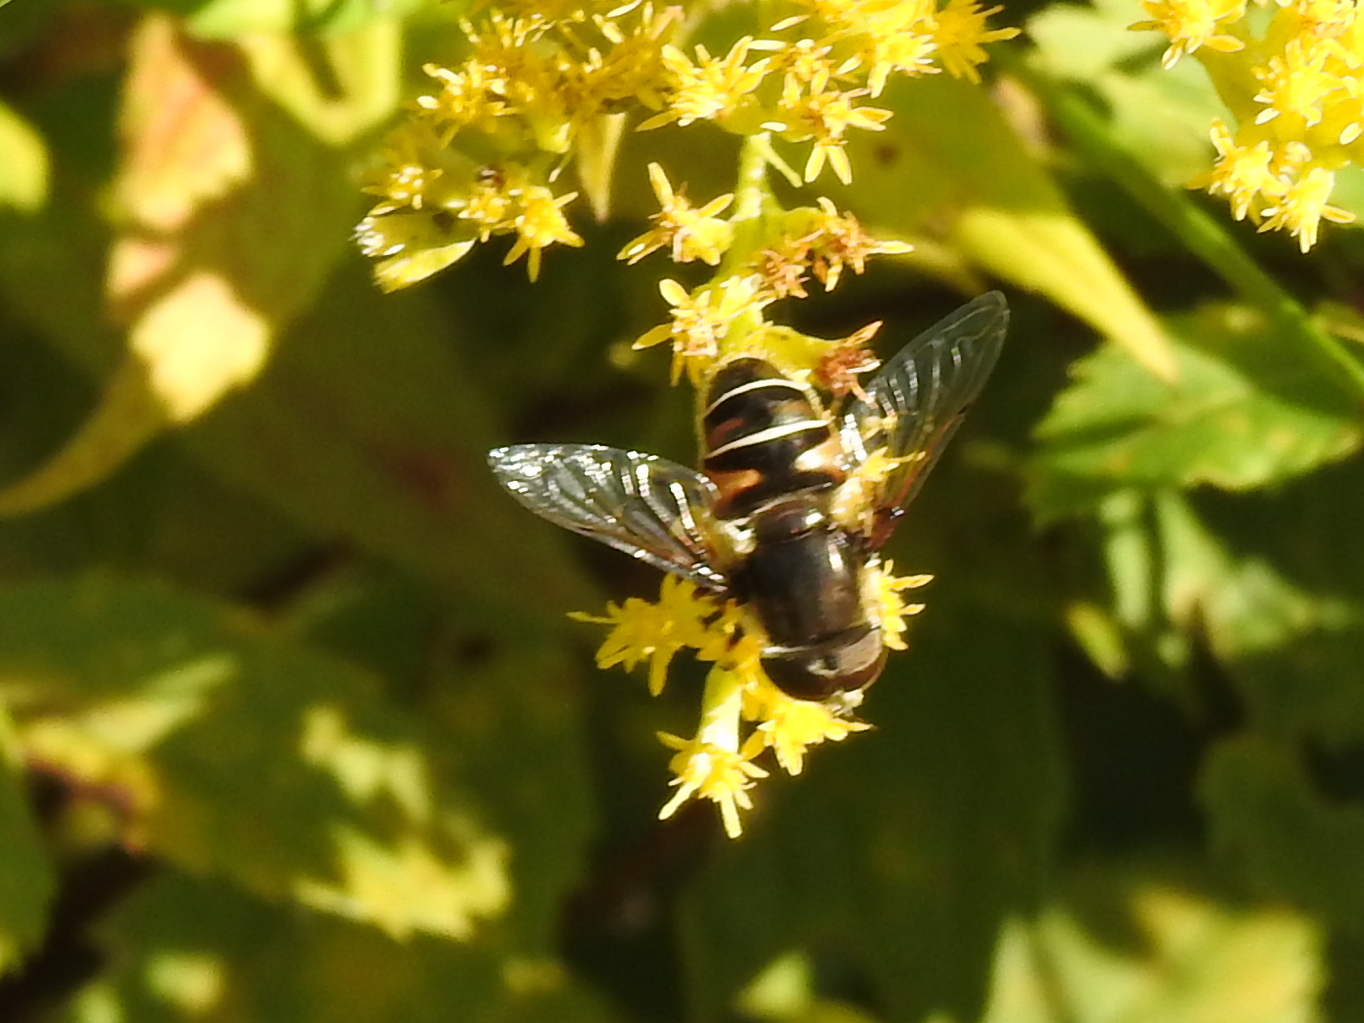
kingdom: Animalia
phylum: Arthropoda
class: Insecta
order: Diptera
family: Syrphidae
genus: Eristalis
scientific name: Eristalis dimidiata
